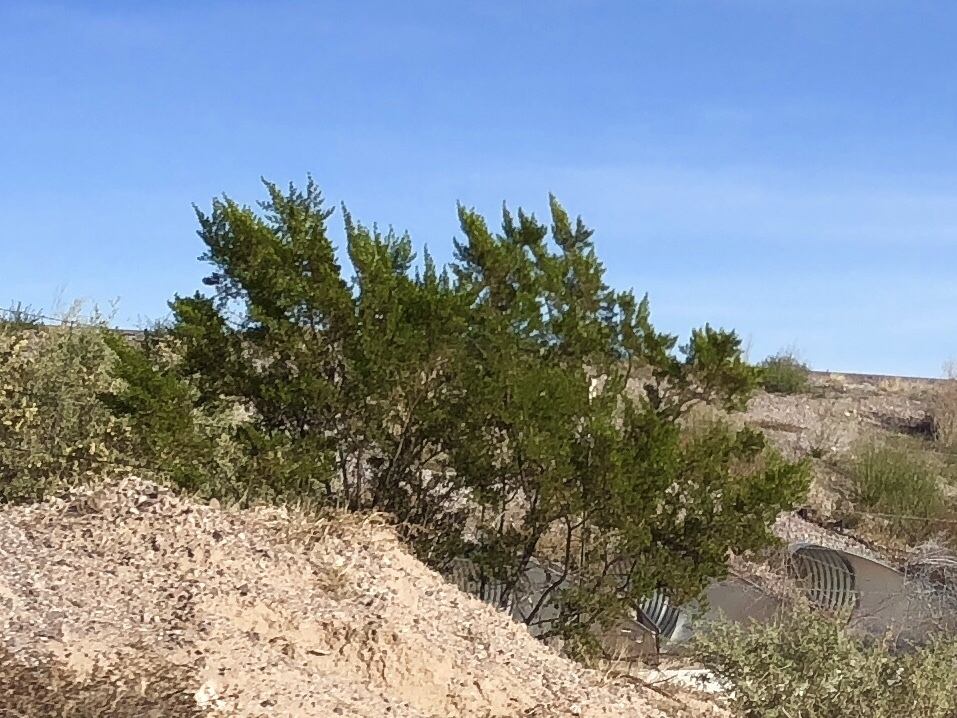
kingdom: Plantae
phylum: Tracheophyta
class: Magnoliopsida
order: Zygophyllales
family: Zygophyllaceae
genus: Larrea
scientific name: Larrea tridentata
